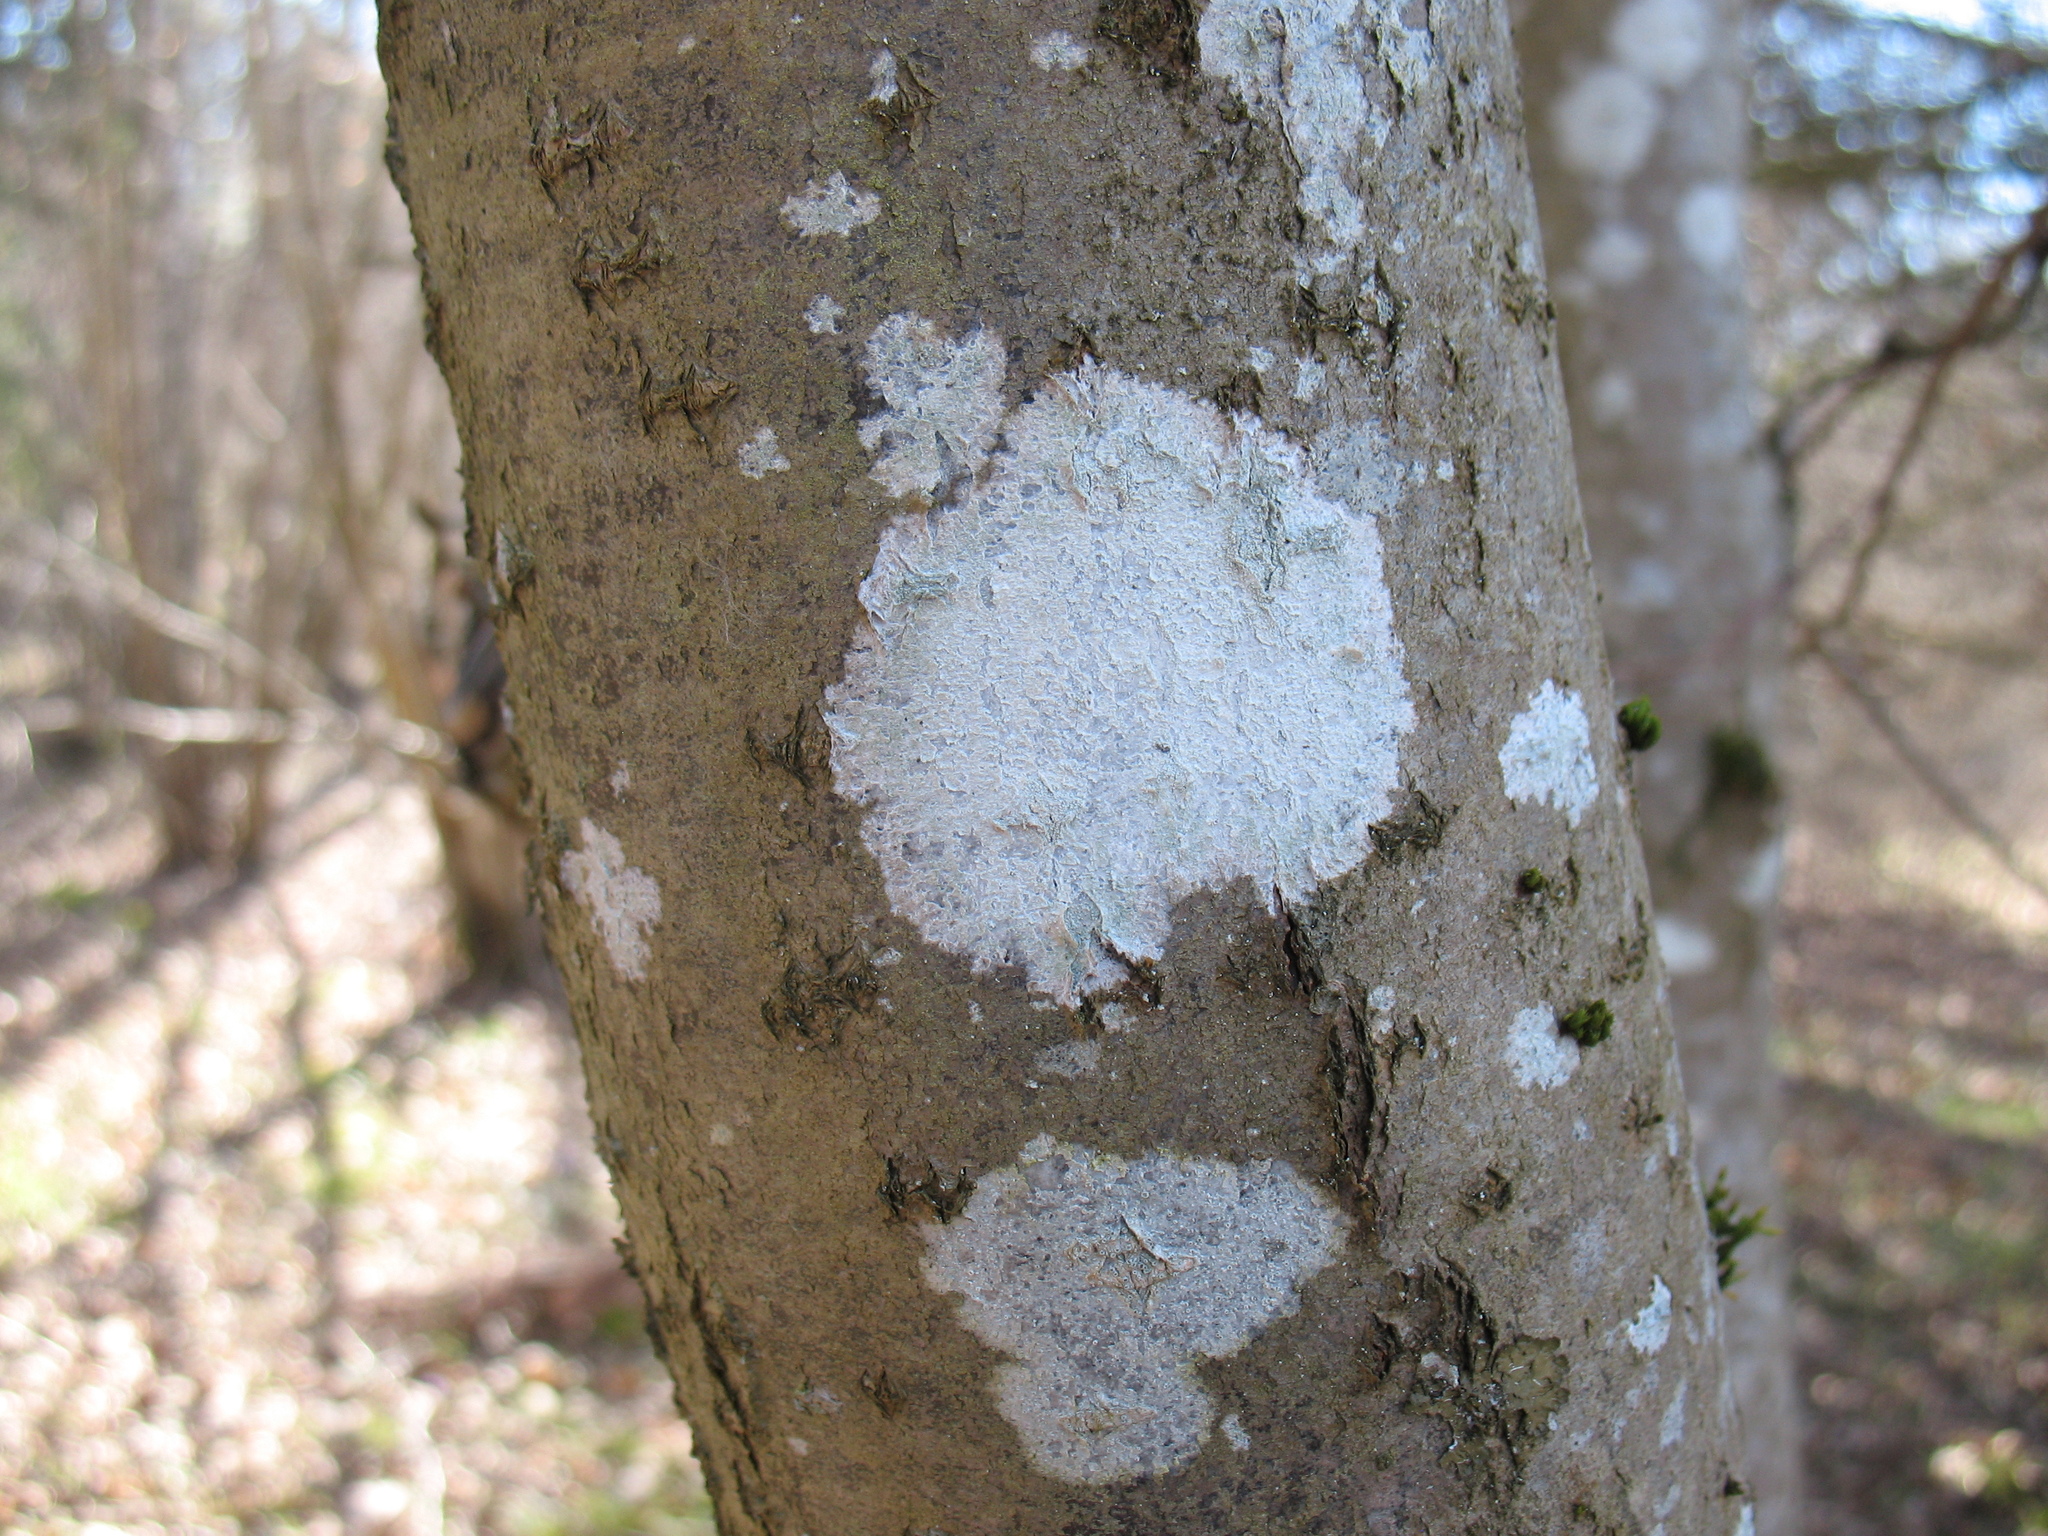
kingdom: Fungi
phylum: Ascomycota
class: Lecanoromycetes
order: Ostropales
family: Phlyctidaceae
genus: Phlyctis
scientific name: Phlyctis argena
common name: Whitewash lichen
